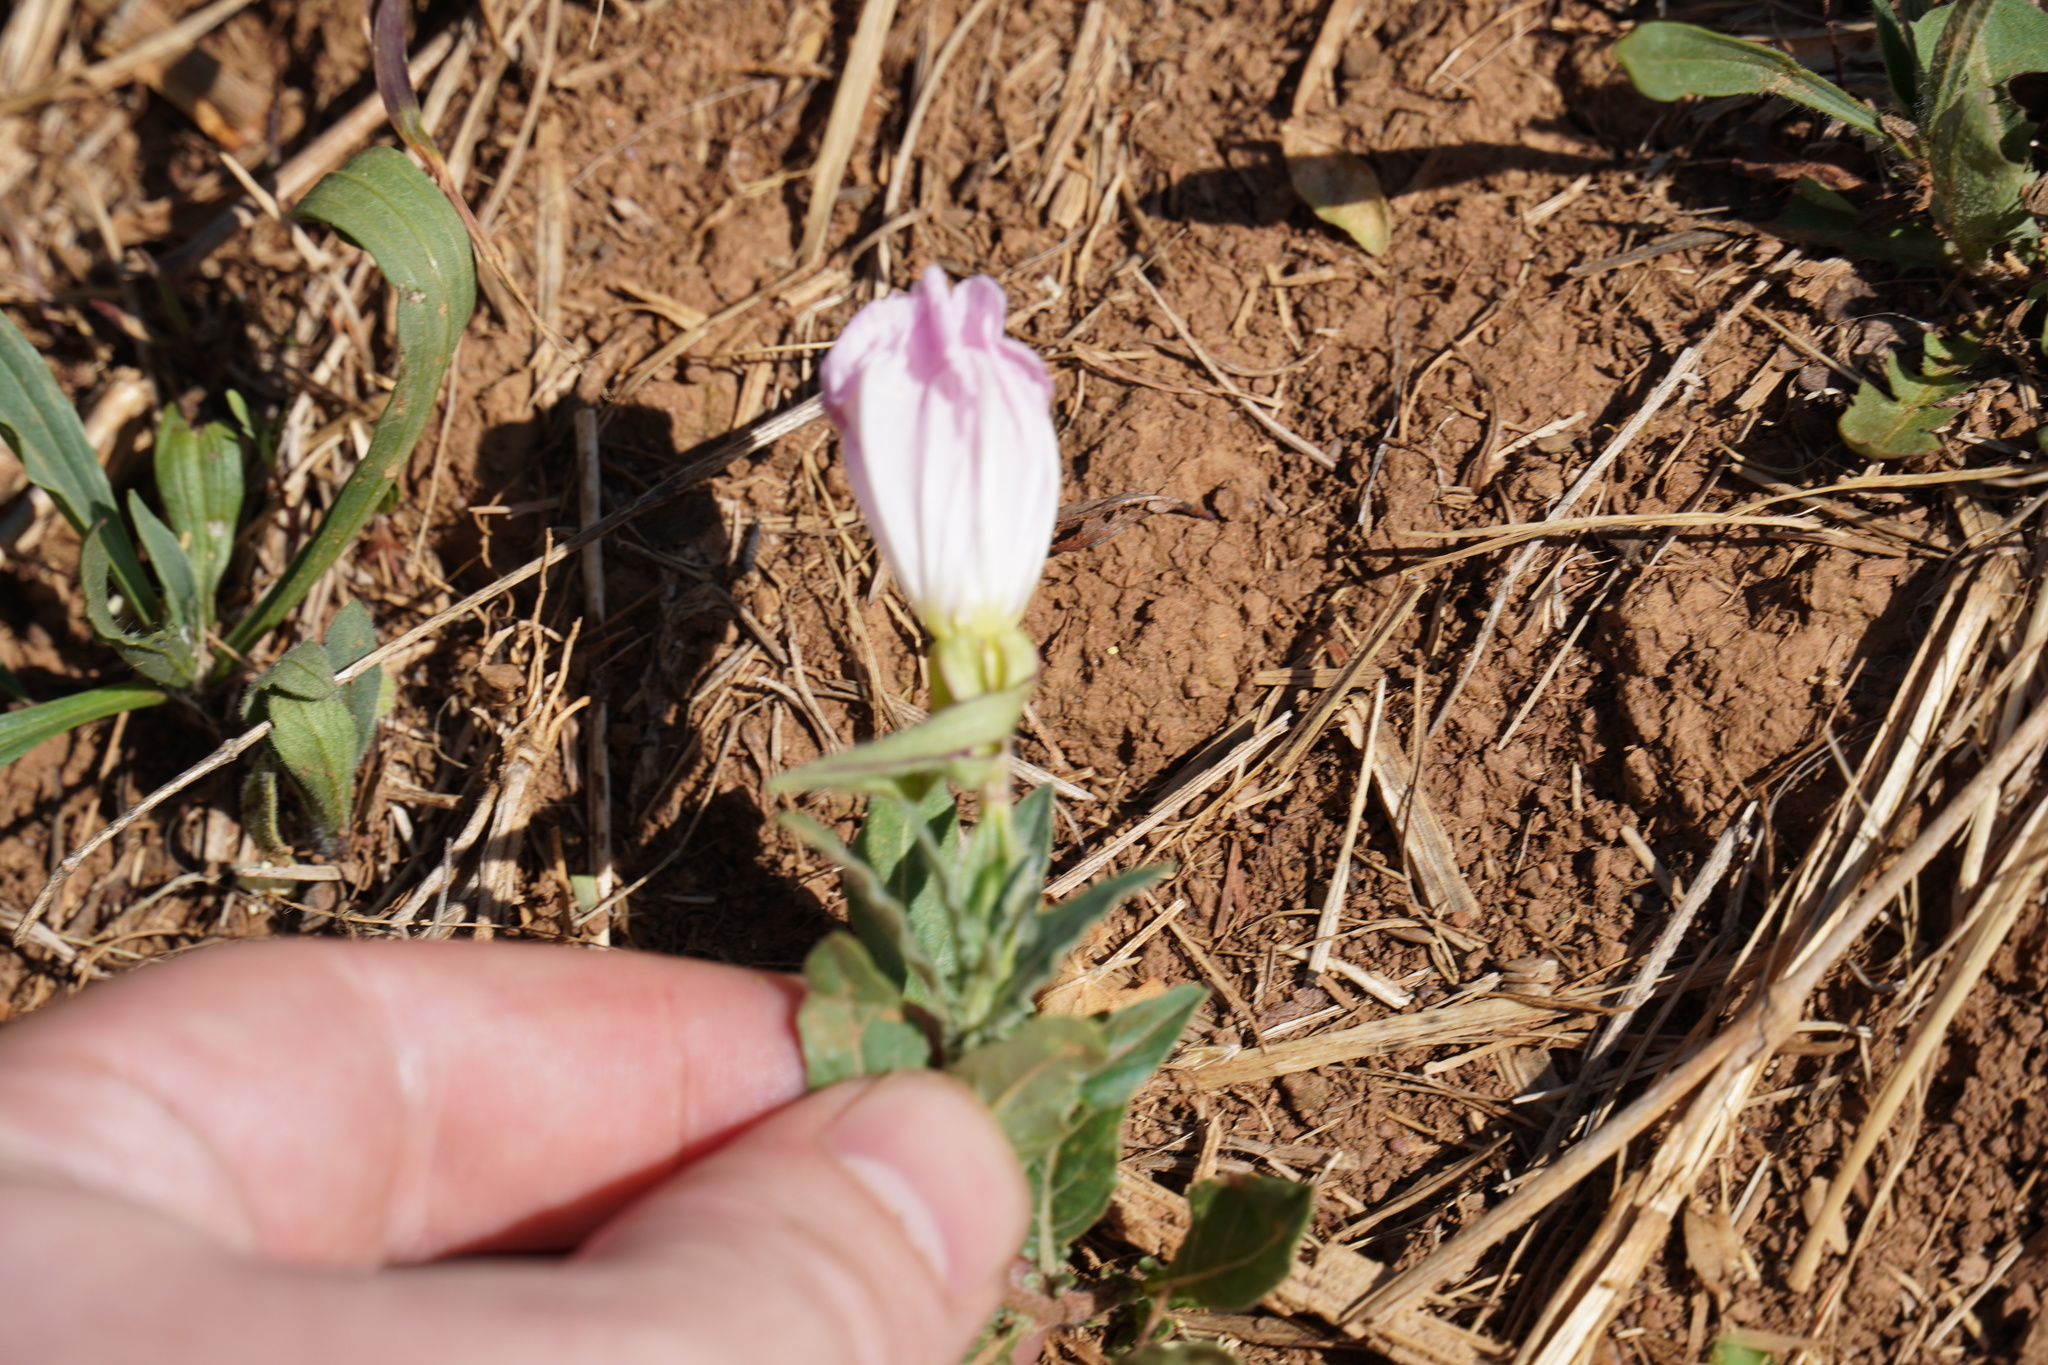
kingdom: Plantae
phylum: Tracheophyta
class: Magnoliopsida
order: Myrtales
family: Onagraceae
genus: Oenothera
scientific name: Oenothera tetraptera
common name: Four-wing evening-primrose
